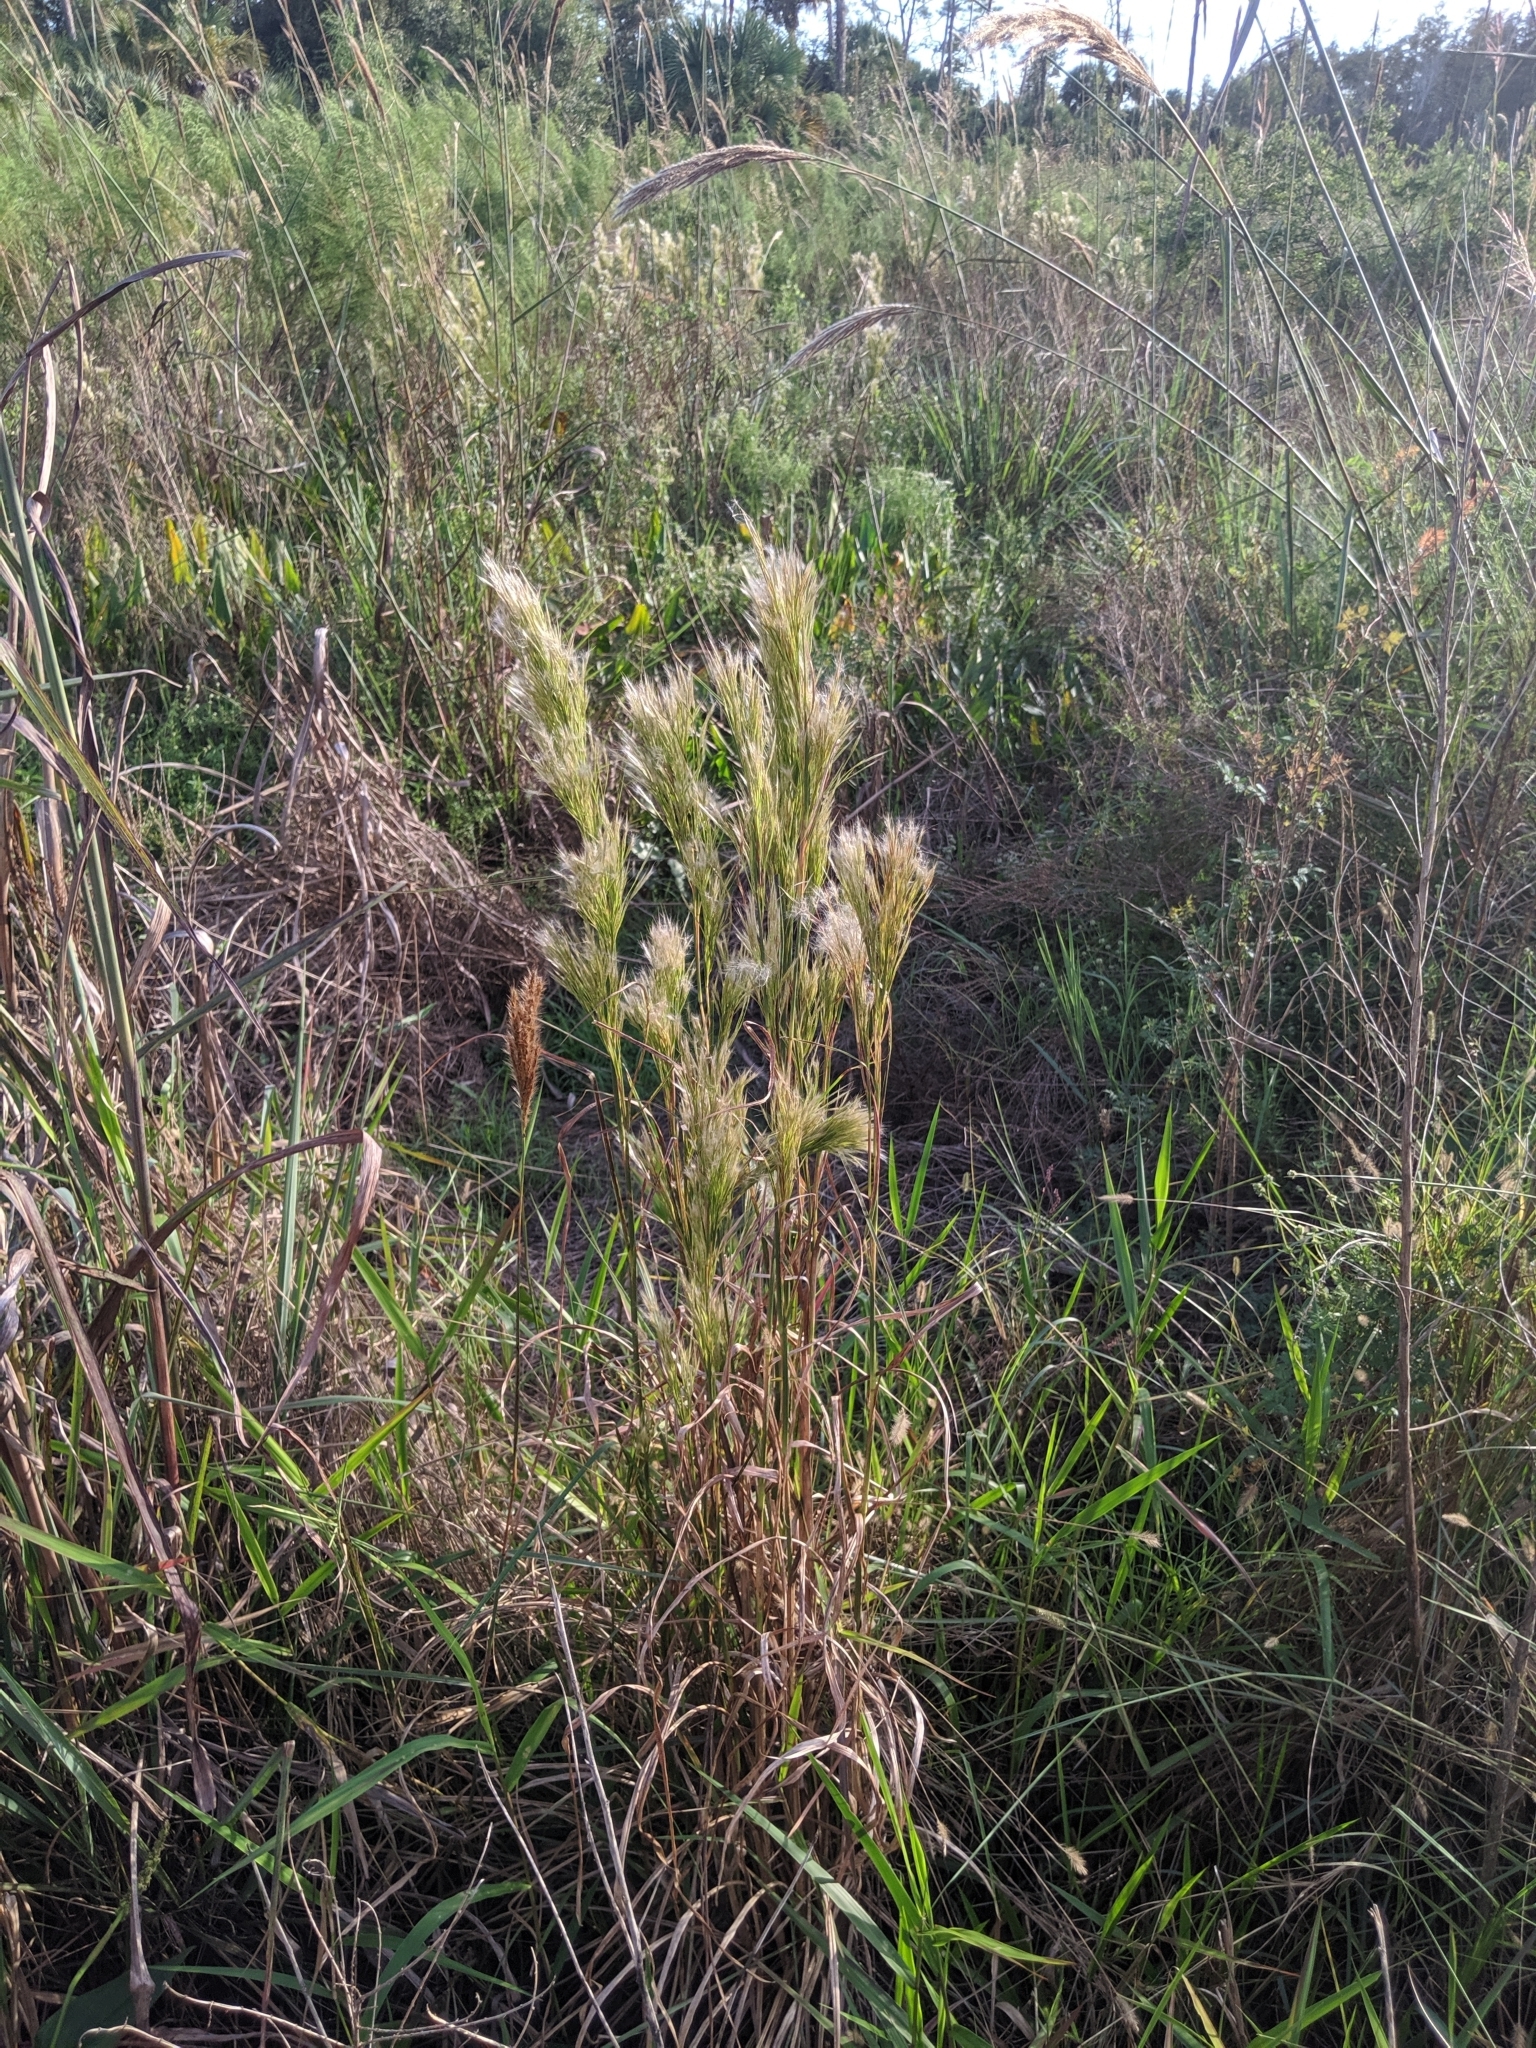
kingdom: Plantae
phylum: Tracheophyta
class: Liliopsida
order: Poales
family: Poaceae
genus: Andropogon
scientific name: Andropogon tenuispatheus
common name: Bushy bluestem
